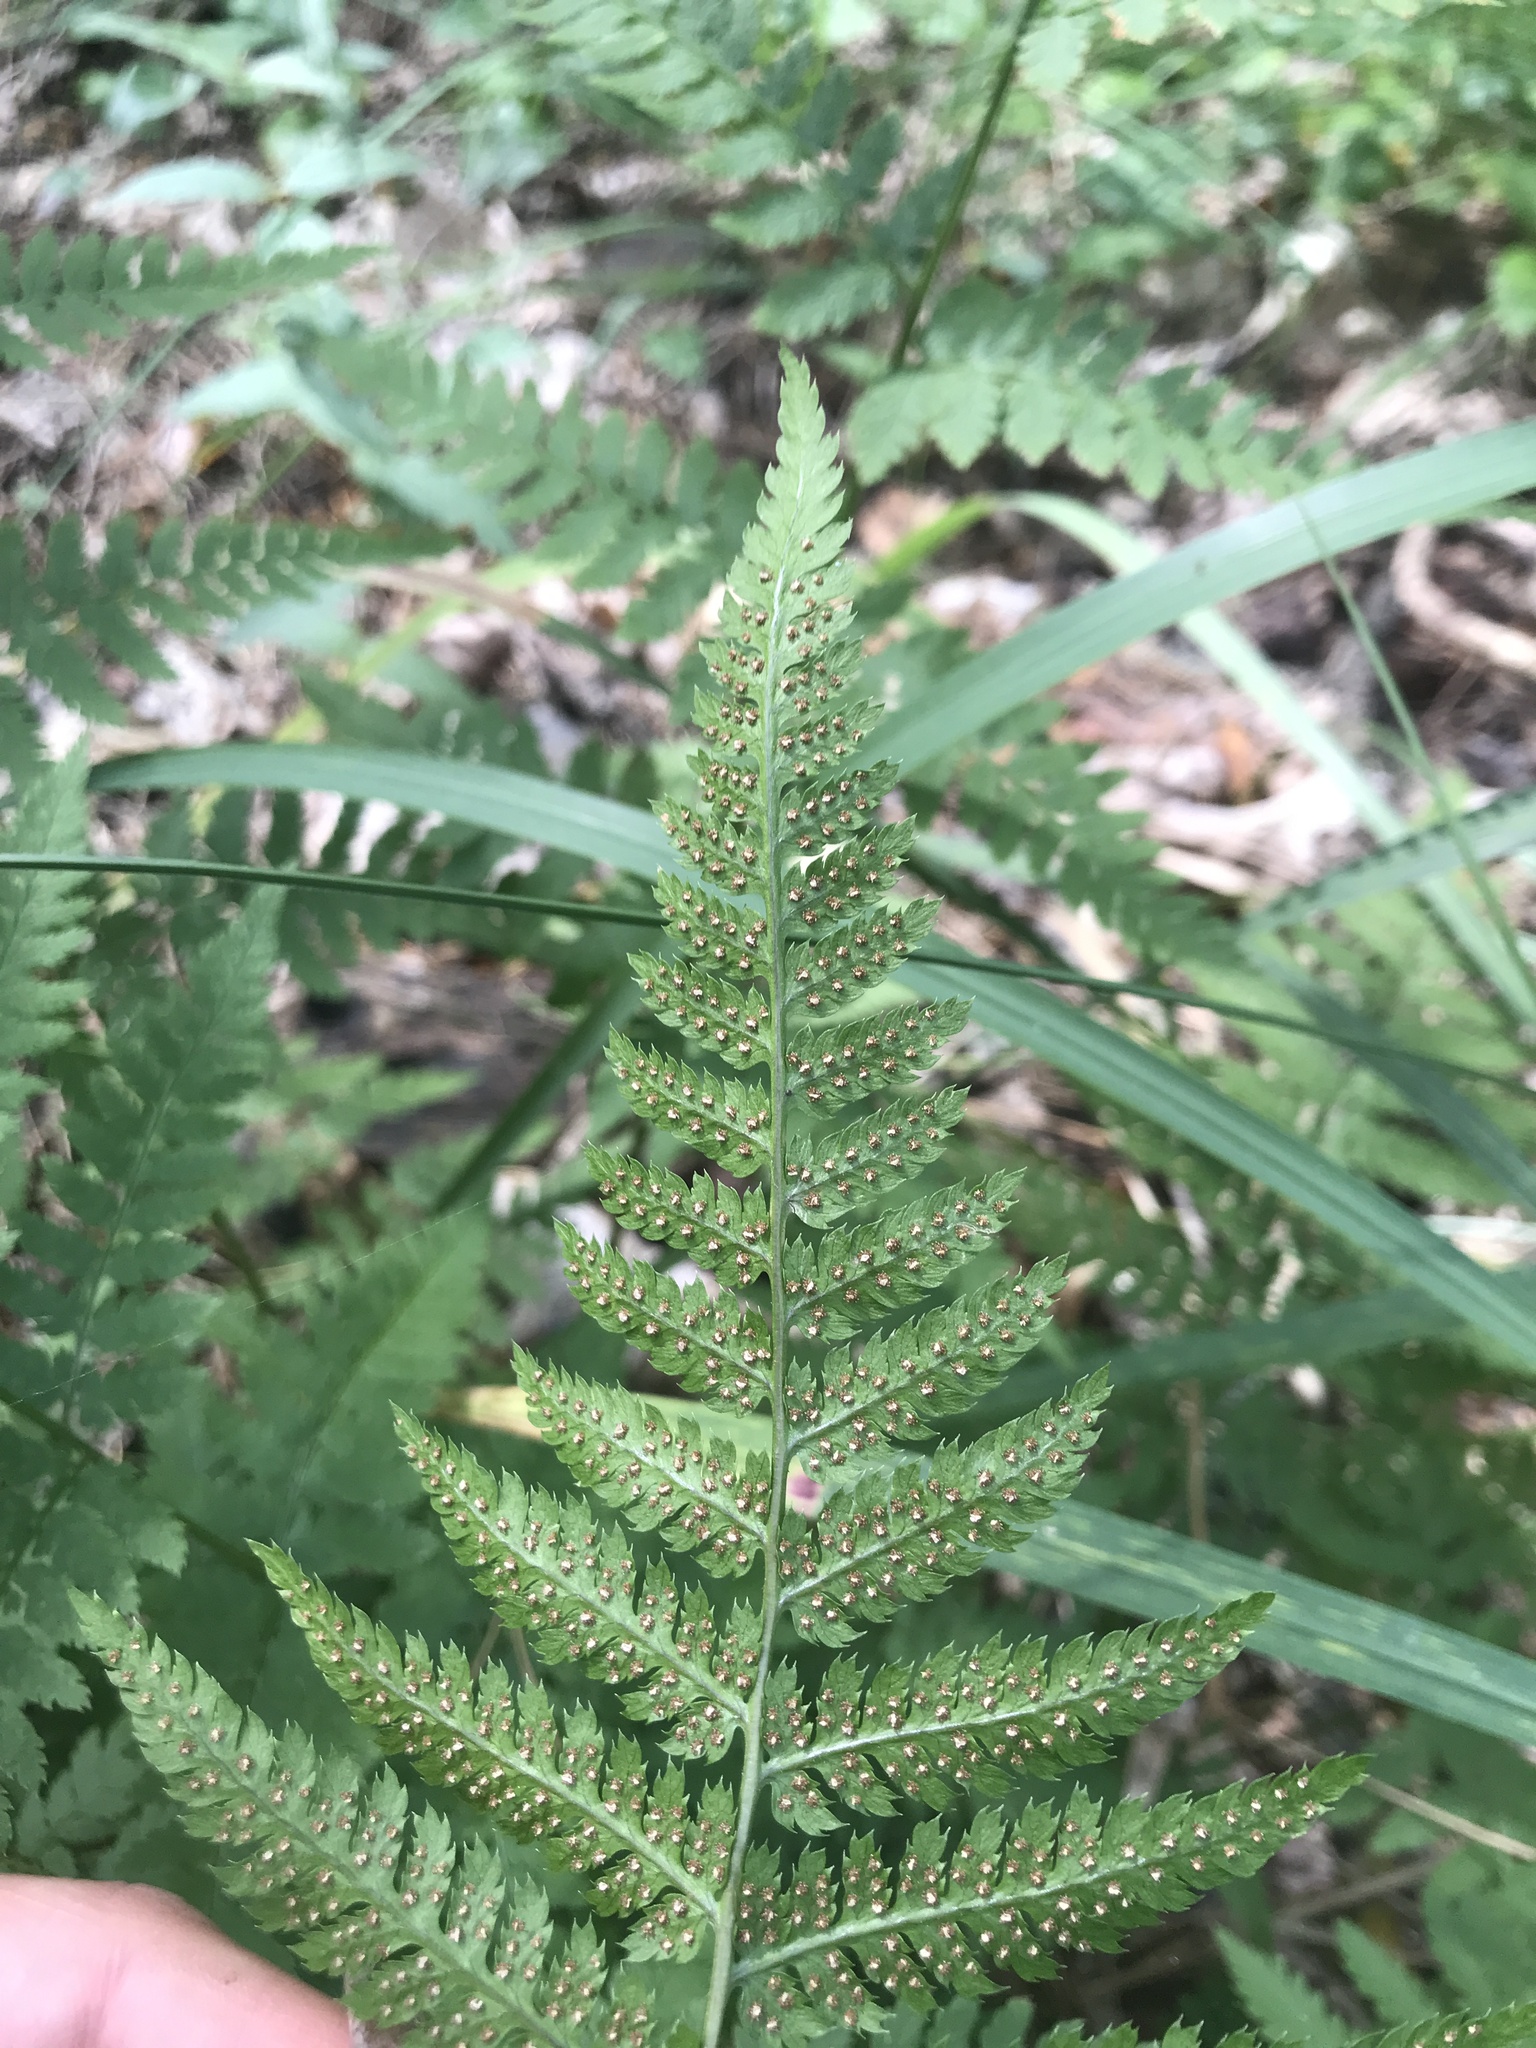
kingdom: Plantae
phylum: Tracheophyta
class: Polypodiopsida
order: Polypodiales
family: Dryopteridaceae
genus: Dryopteris
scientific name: Dryopteris carthusiana
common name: Narrow buckler-fern
